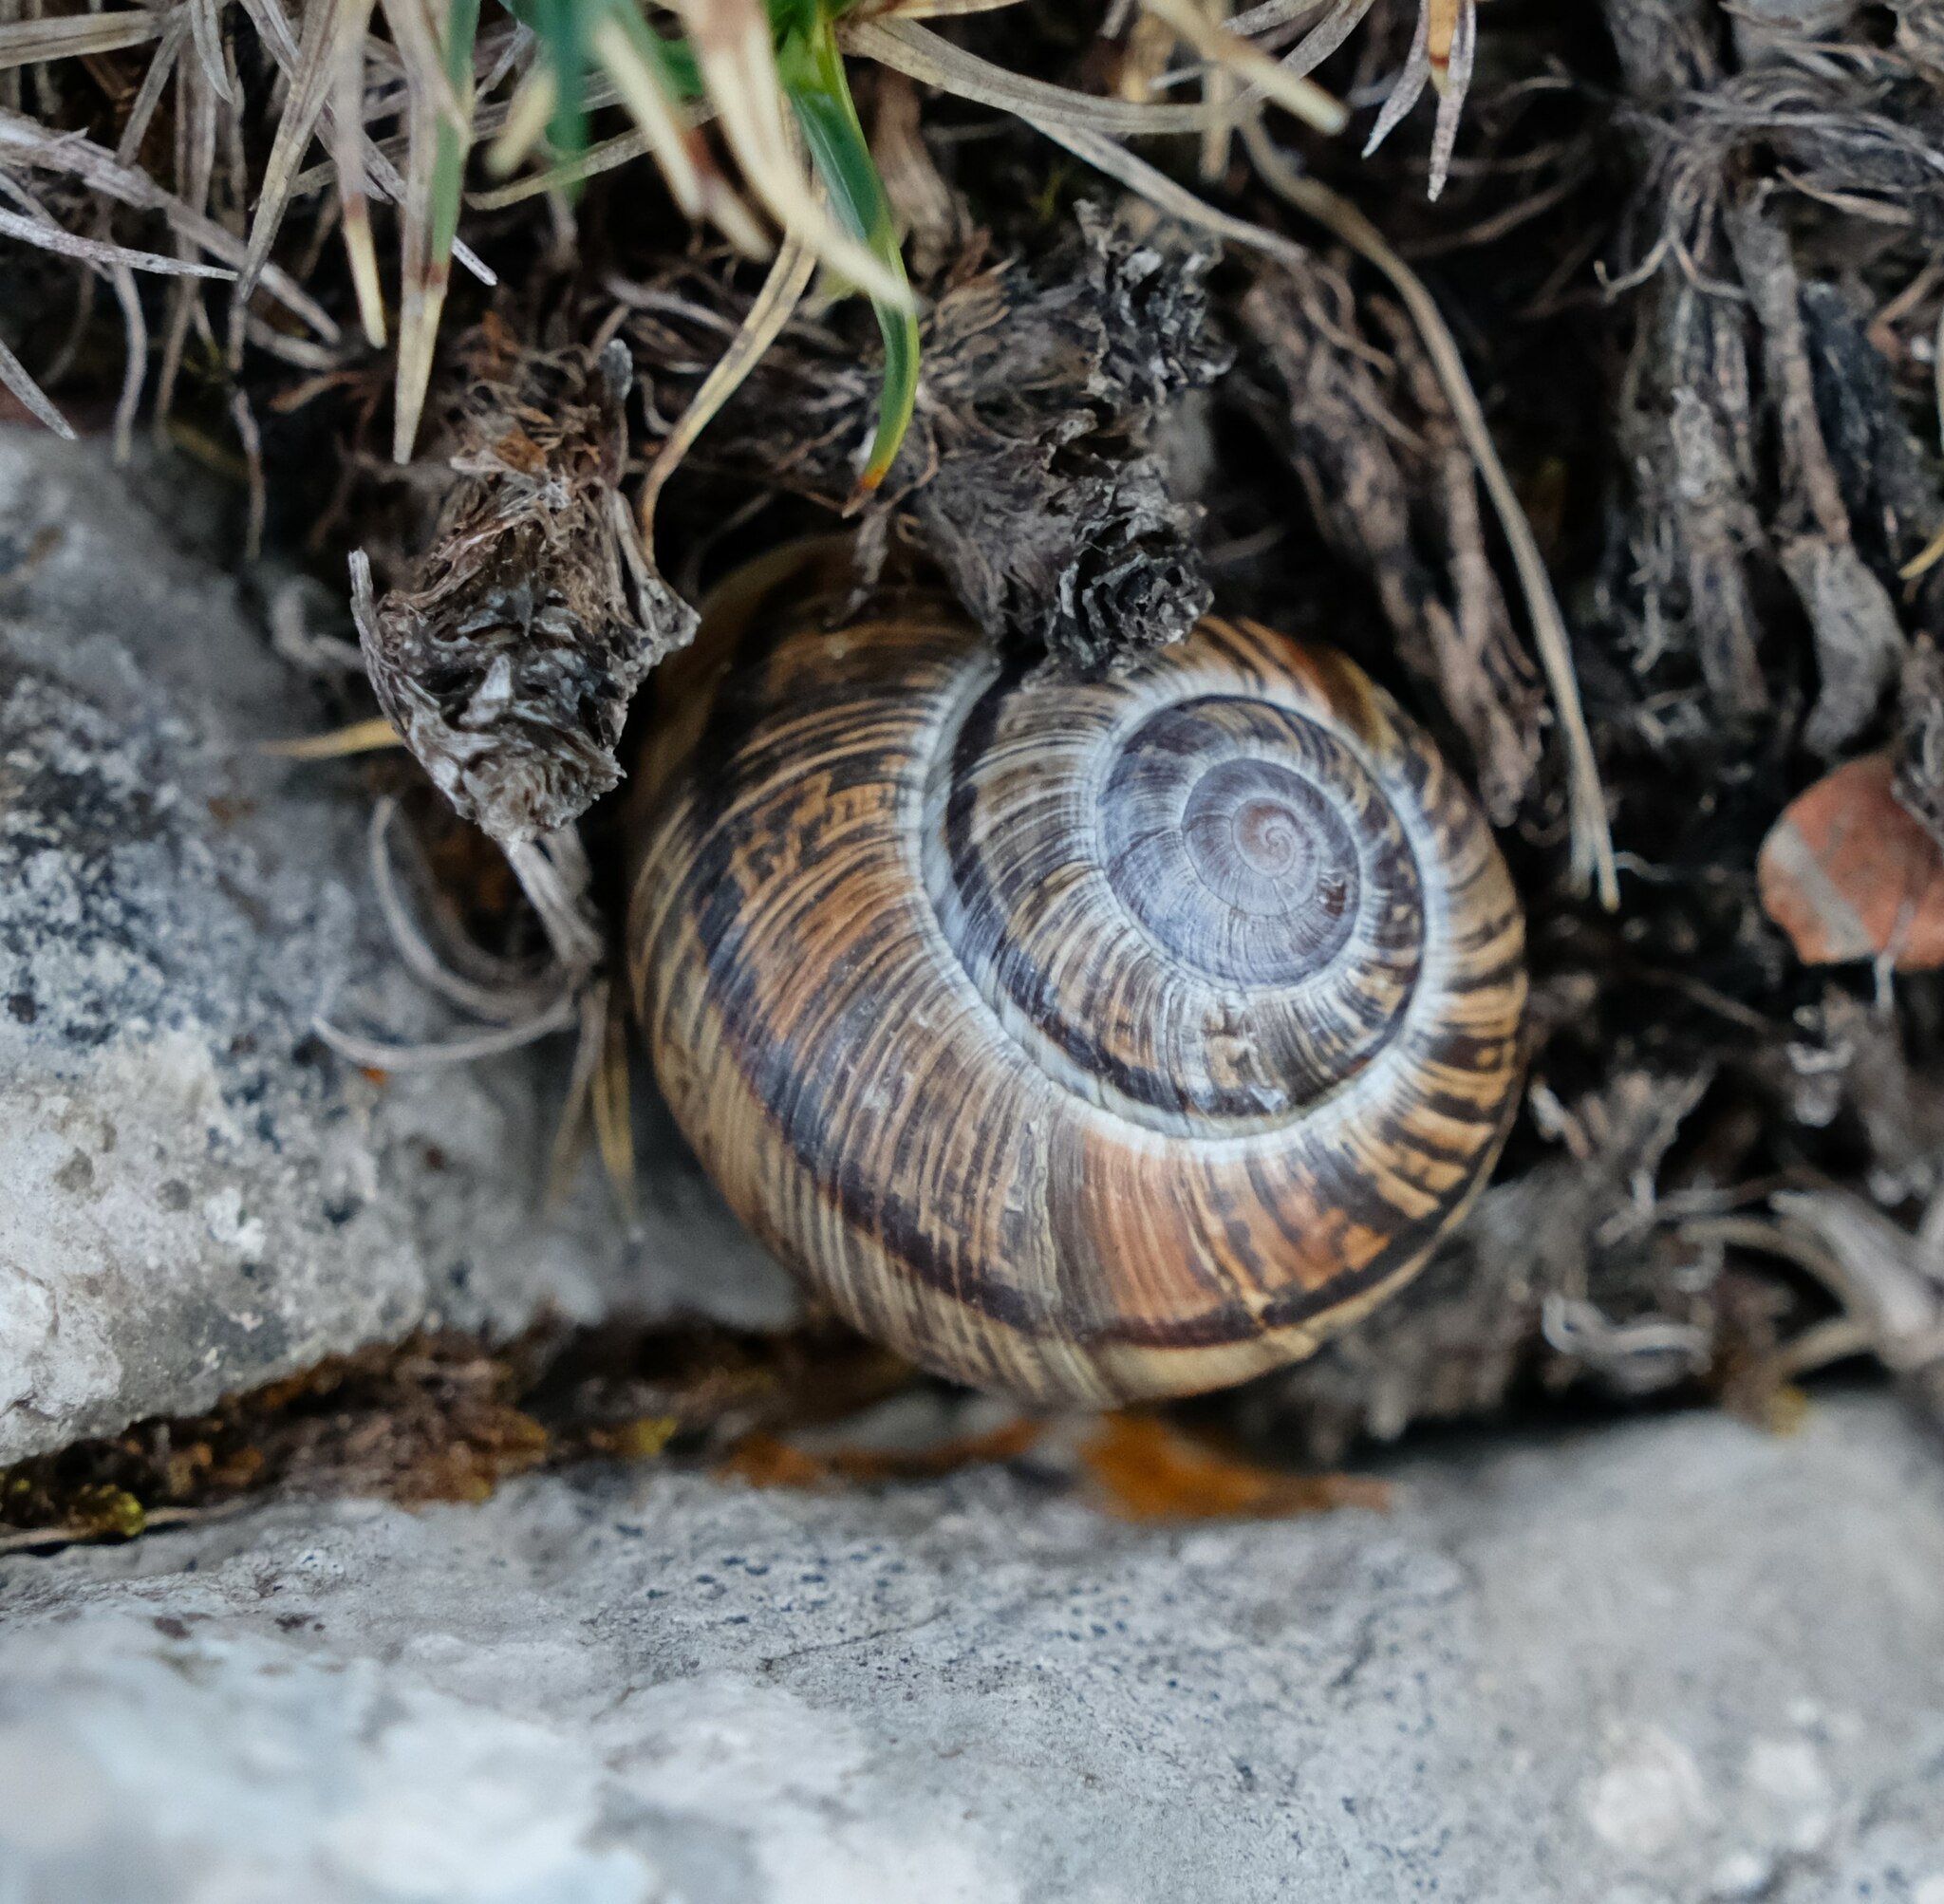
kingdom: Animalia
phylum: Mollusca
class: Gastropoda
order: Stylommatophora
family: Helicidae
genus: Arianta
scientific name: Arianta arbustorum
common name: Copse snail
